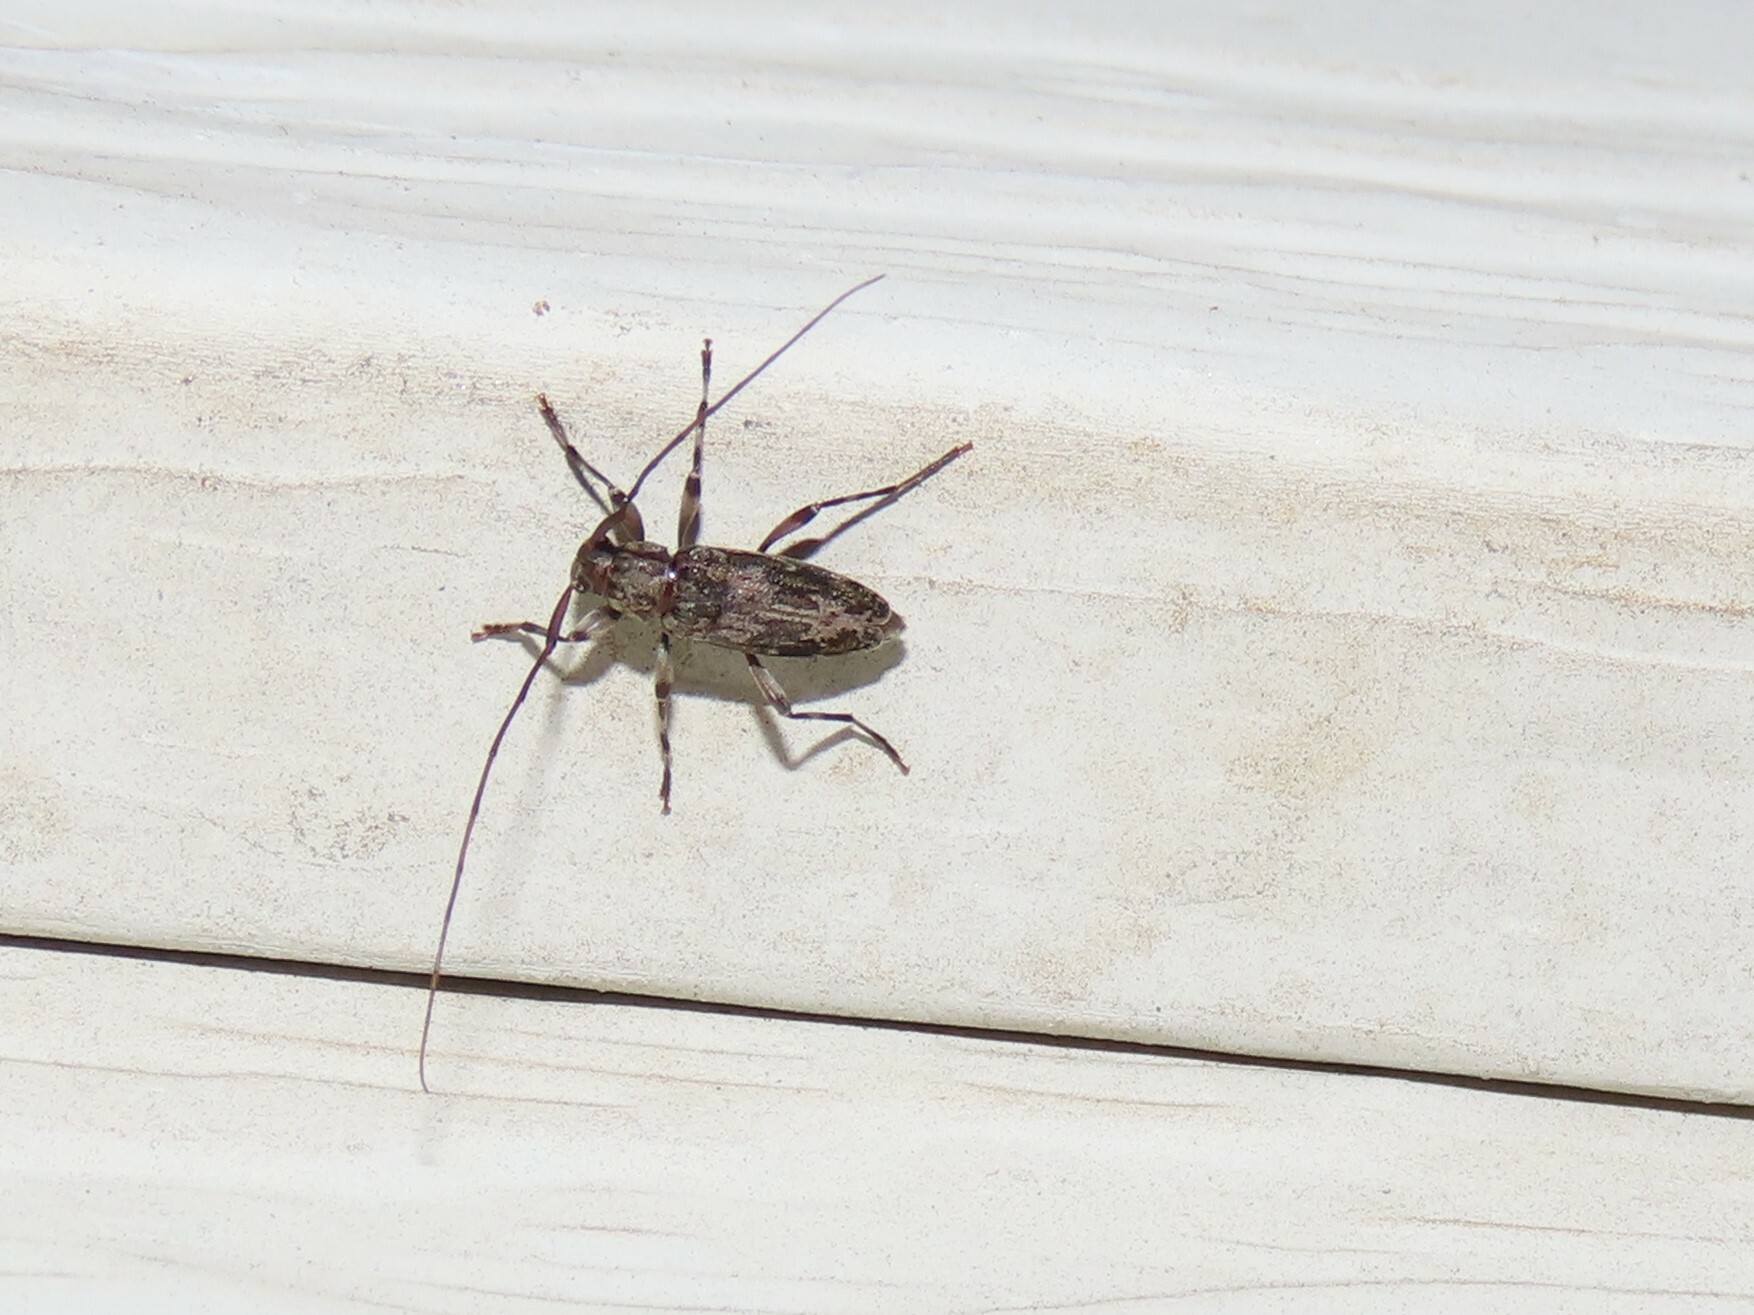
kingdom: Animalia
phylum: Arthropoda
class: Insecta
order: Coleoptera
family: Cerambycidae
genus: Lepturges
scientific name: Lepturges confluens
